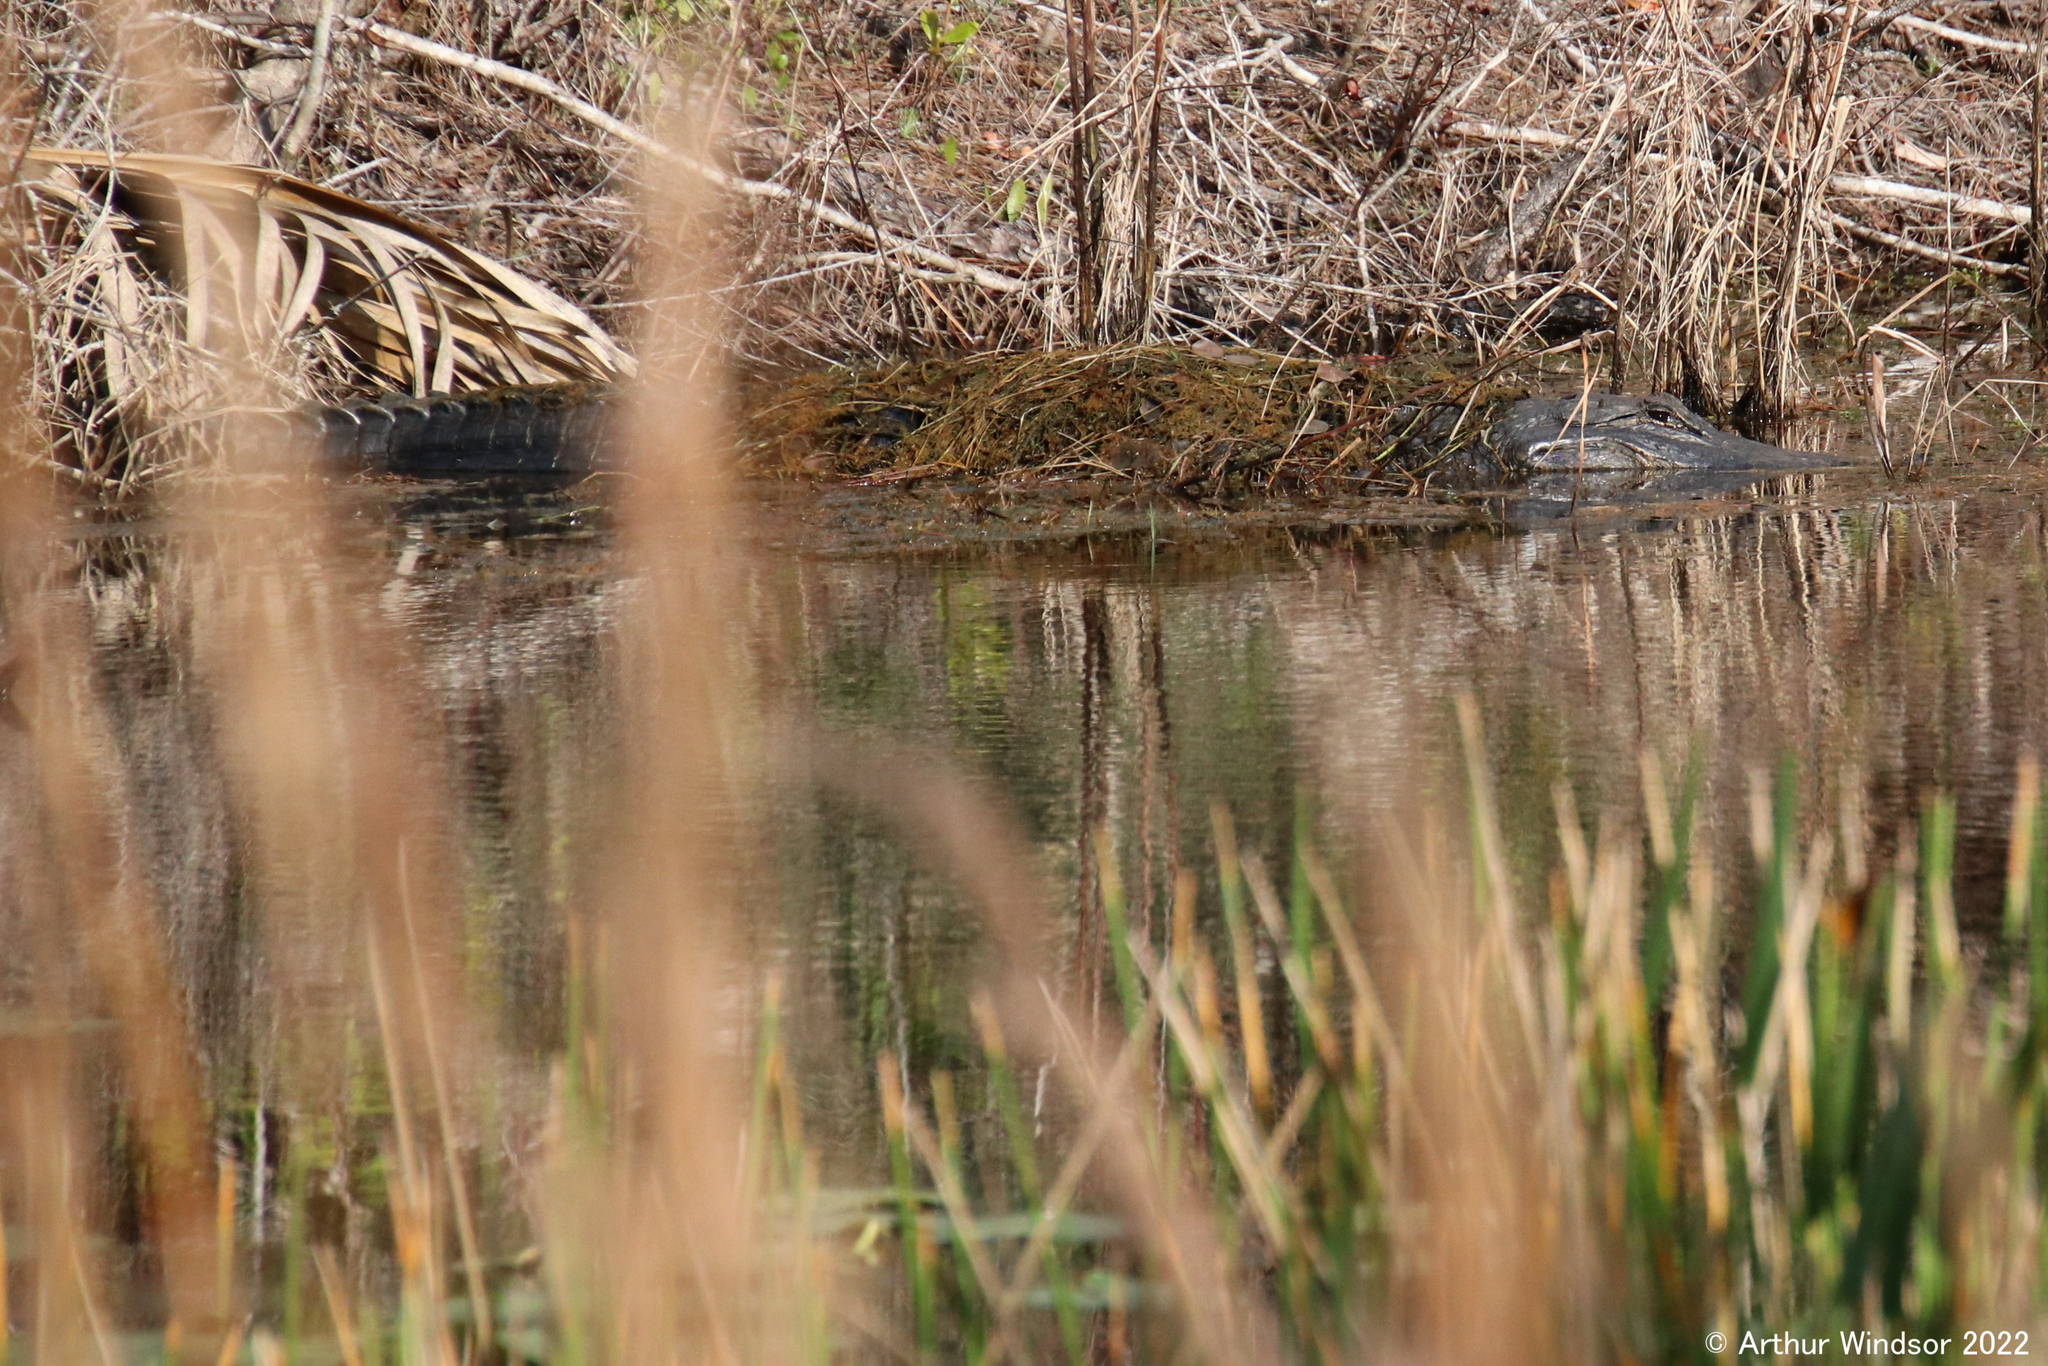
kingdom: Animalia
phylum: Chordata
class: Crocodylia
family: Alligatoridae
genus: Alligator
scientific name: Alligator mississippiensis
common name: American alligator
